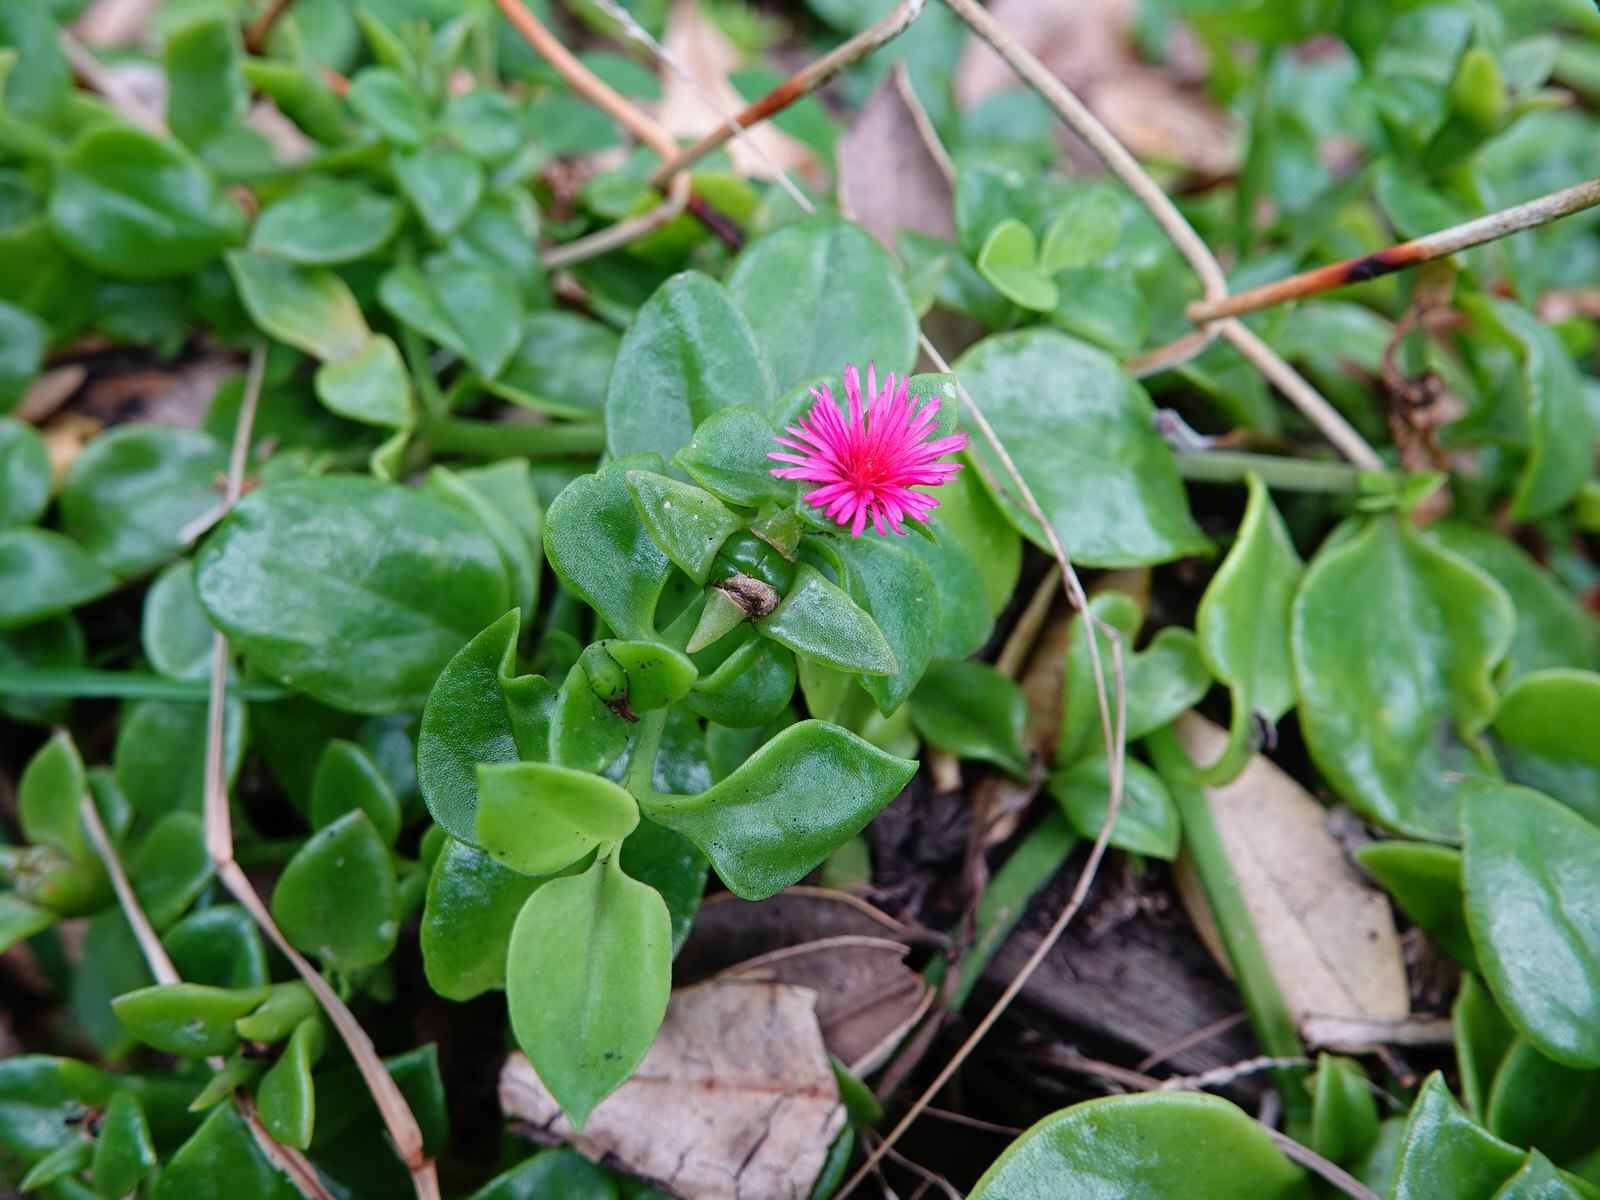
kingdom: Plantae
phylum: Tracheophyta
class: Magnoliopsida
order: Caryophyllales
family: Aizoaceae
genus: Mesembryanthemum
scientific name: Mesembryanthemum cordifolium
